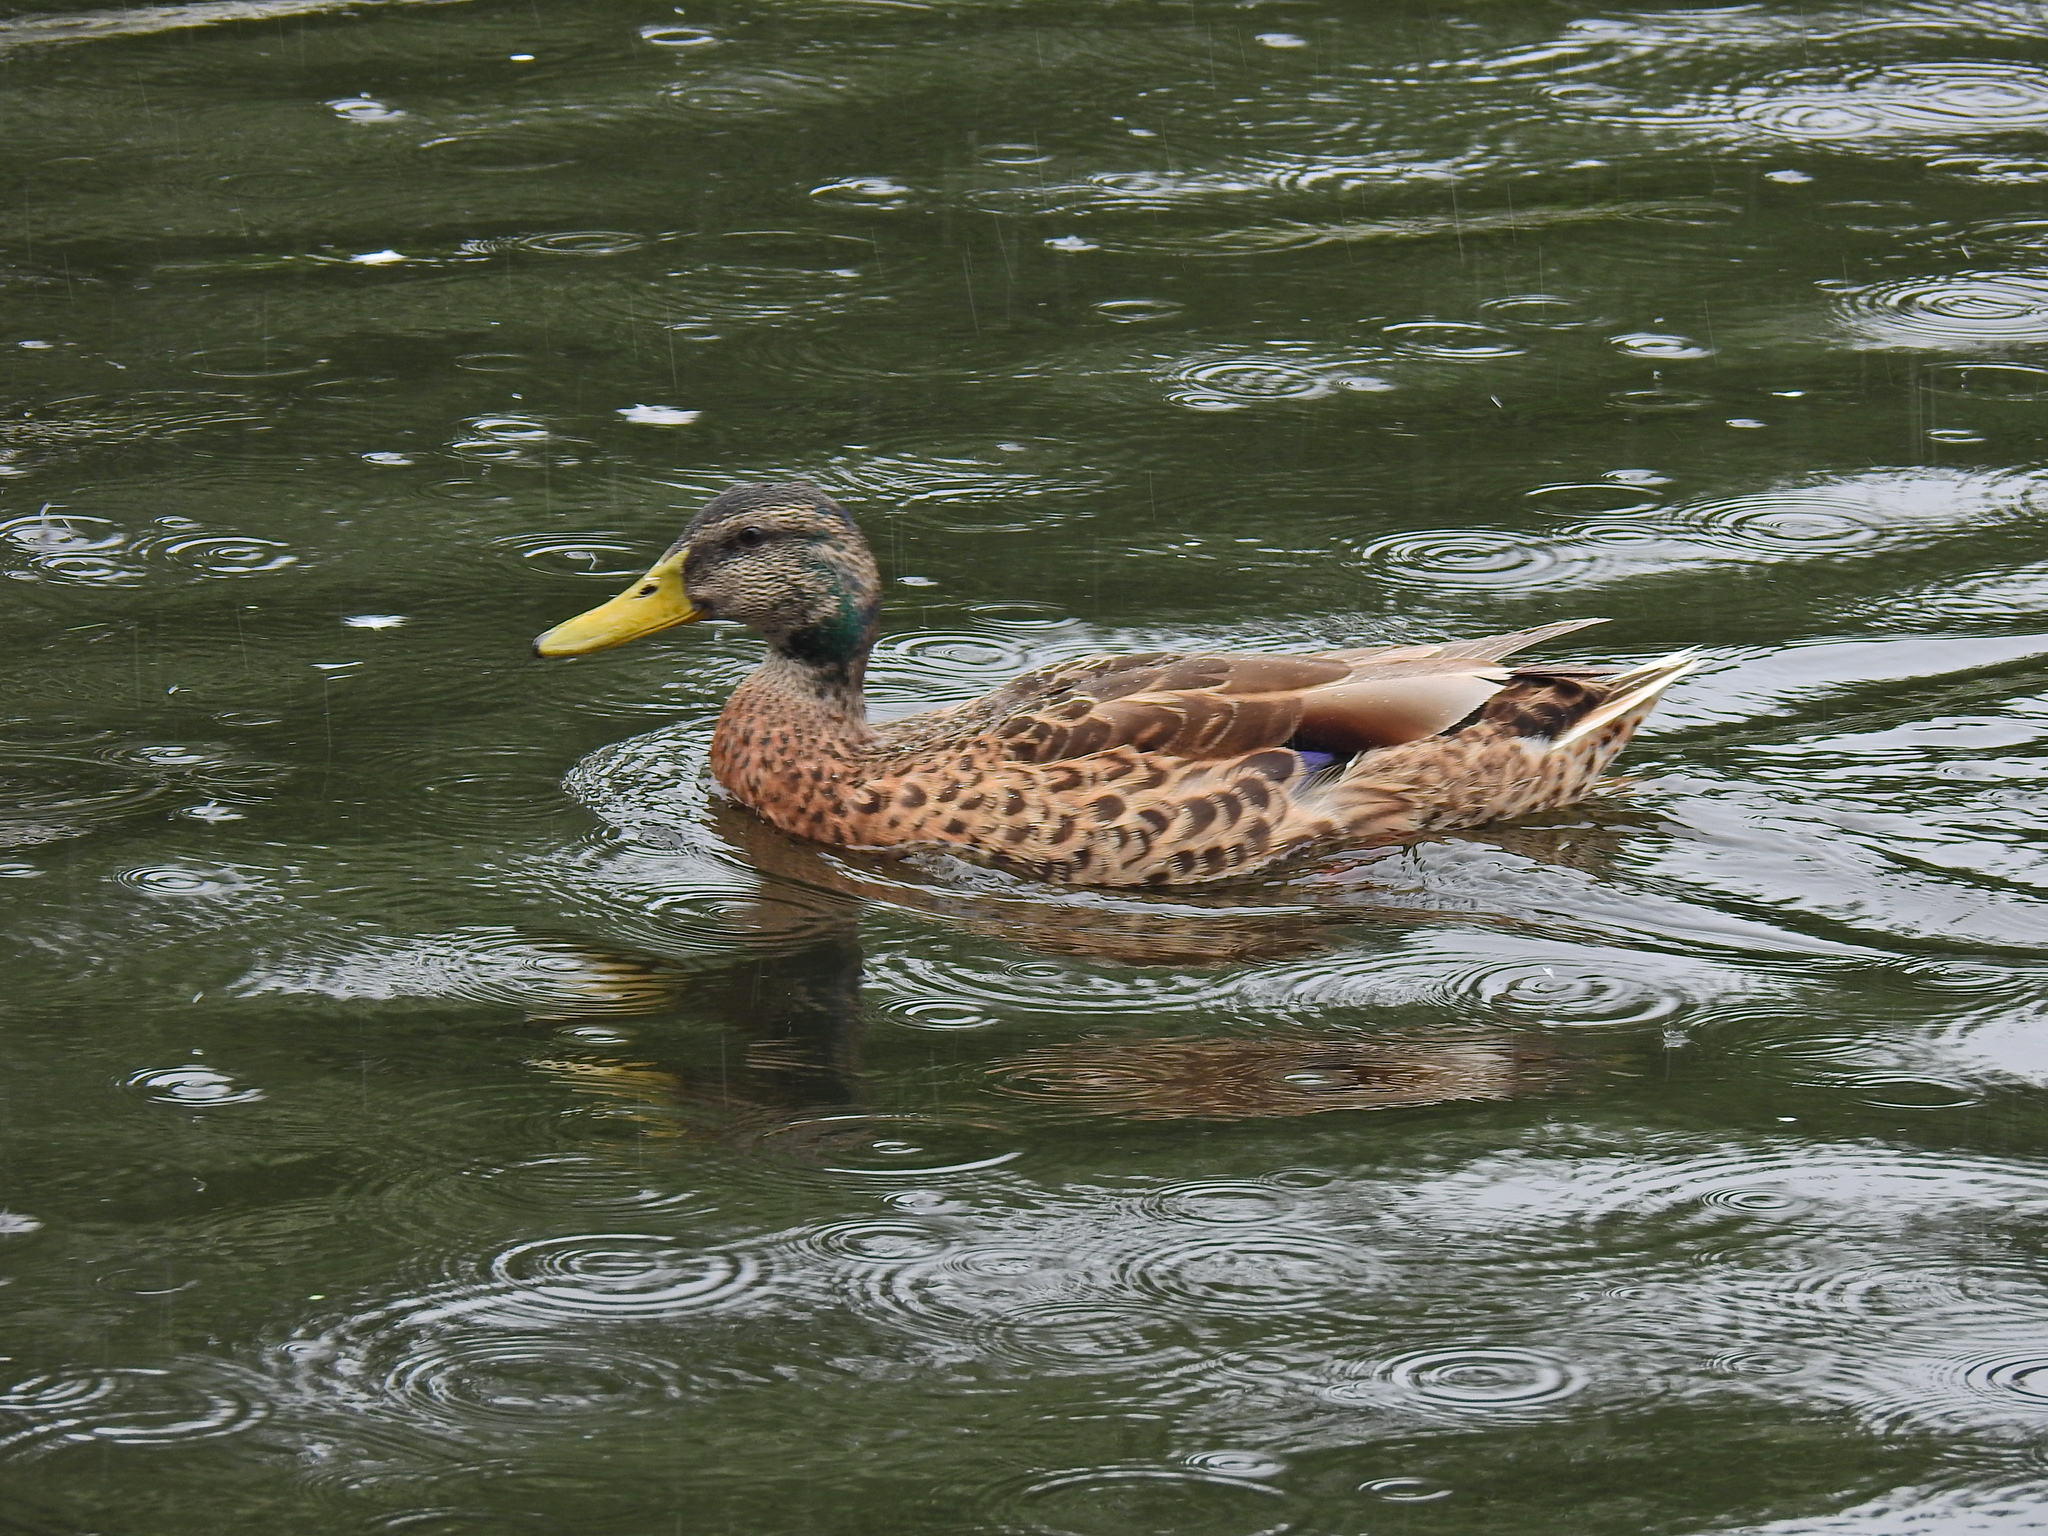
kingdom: Animalia
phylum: Chordata
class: Aves
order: Anseriformes
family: Anatidae
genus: Anas
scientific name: Anas platyrhynchos
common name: Mallard
